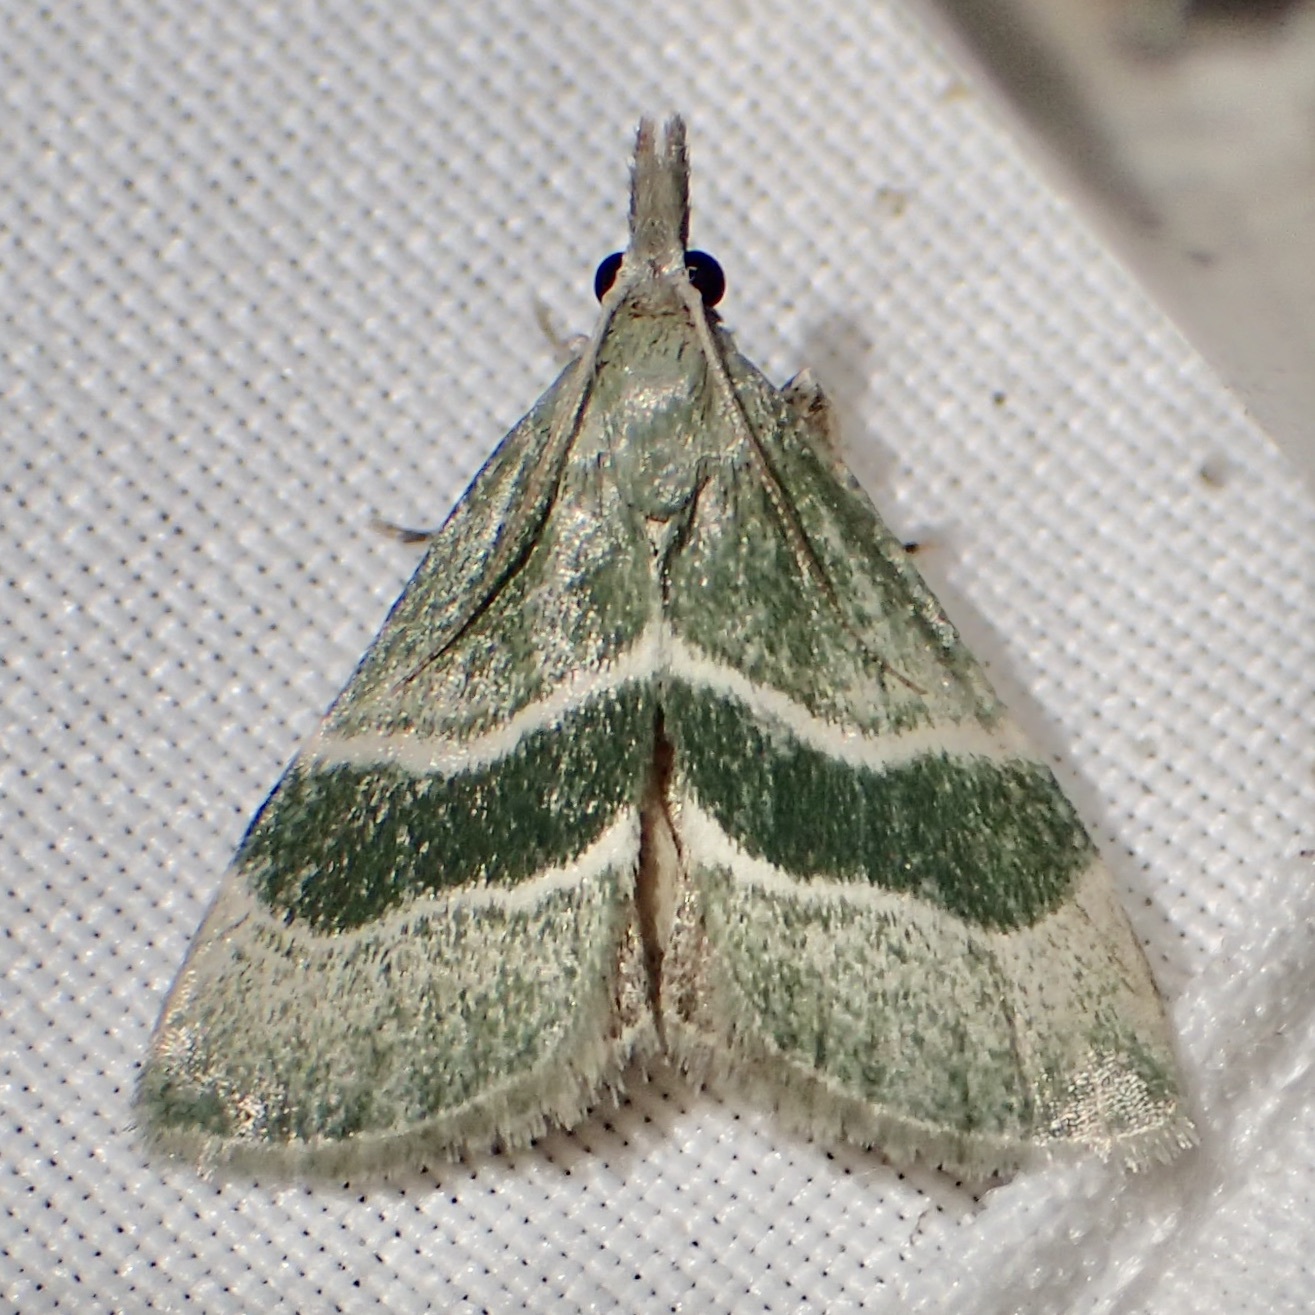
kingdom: Animalia
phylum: Arthropoda
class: Insecta
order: Lepidoptera
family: Pyralidae
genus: Anemosella
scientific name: Anemosella viridalis
